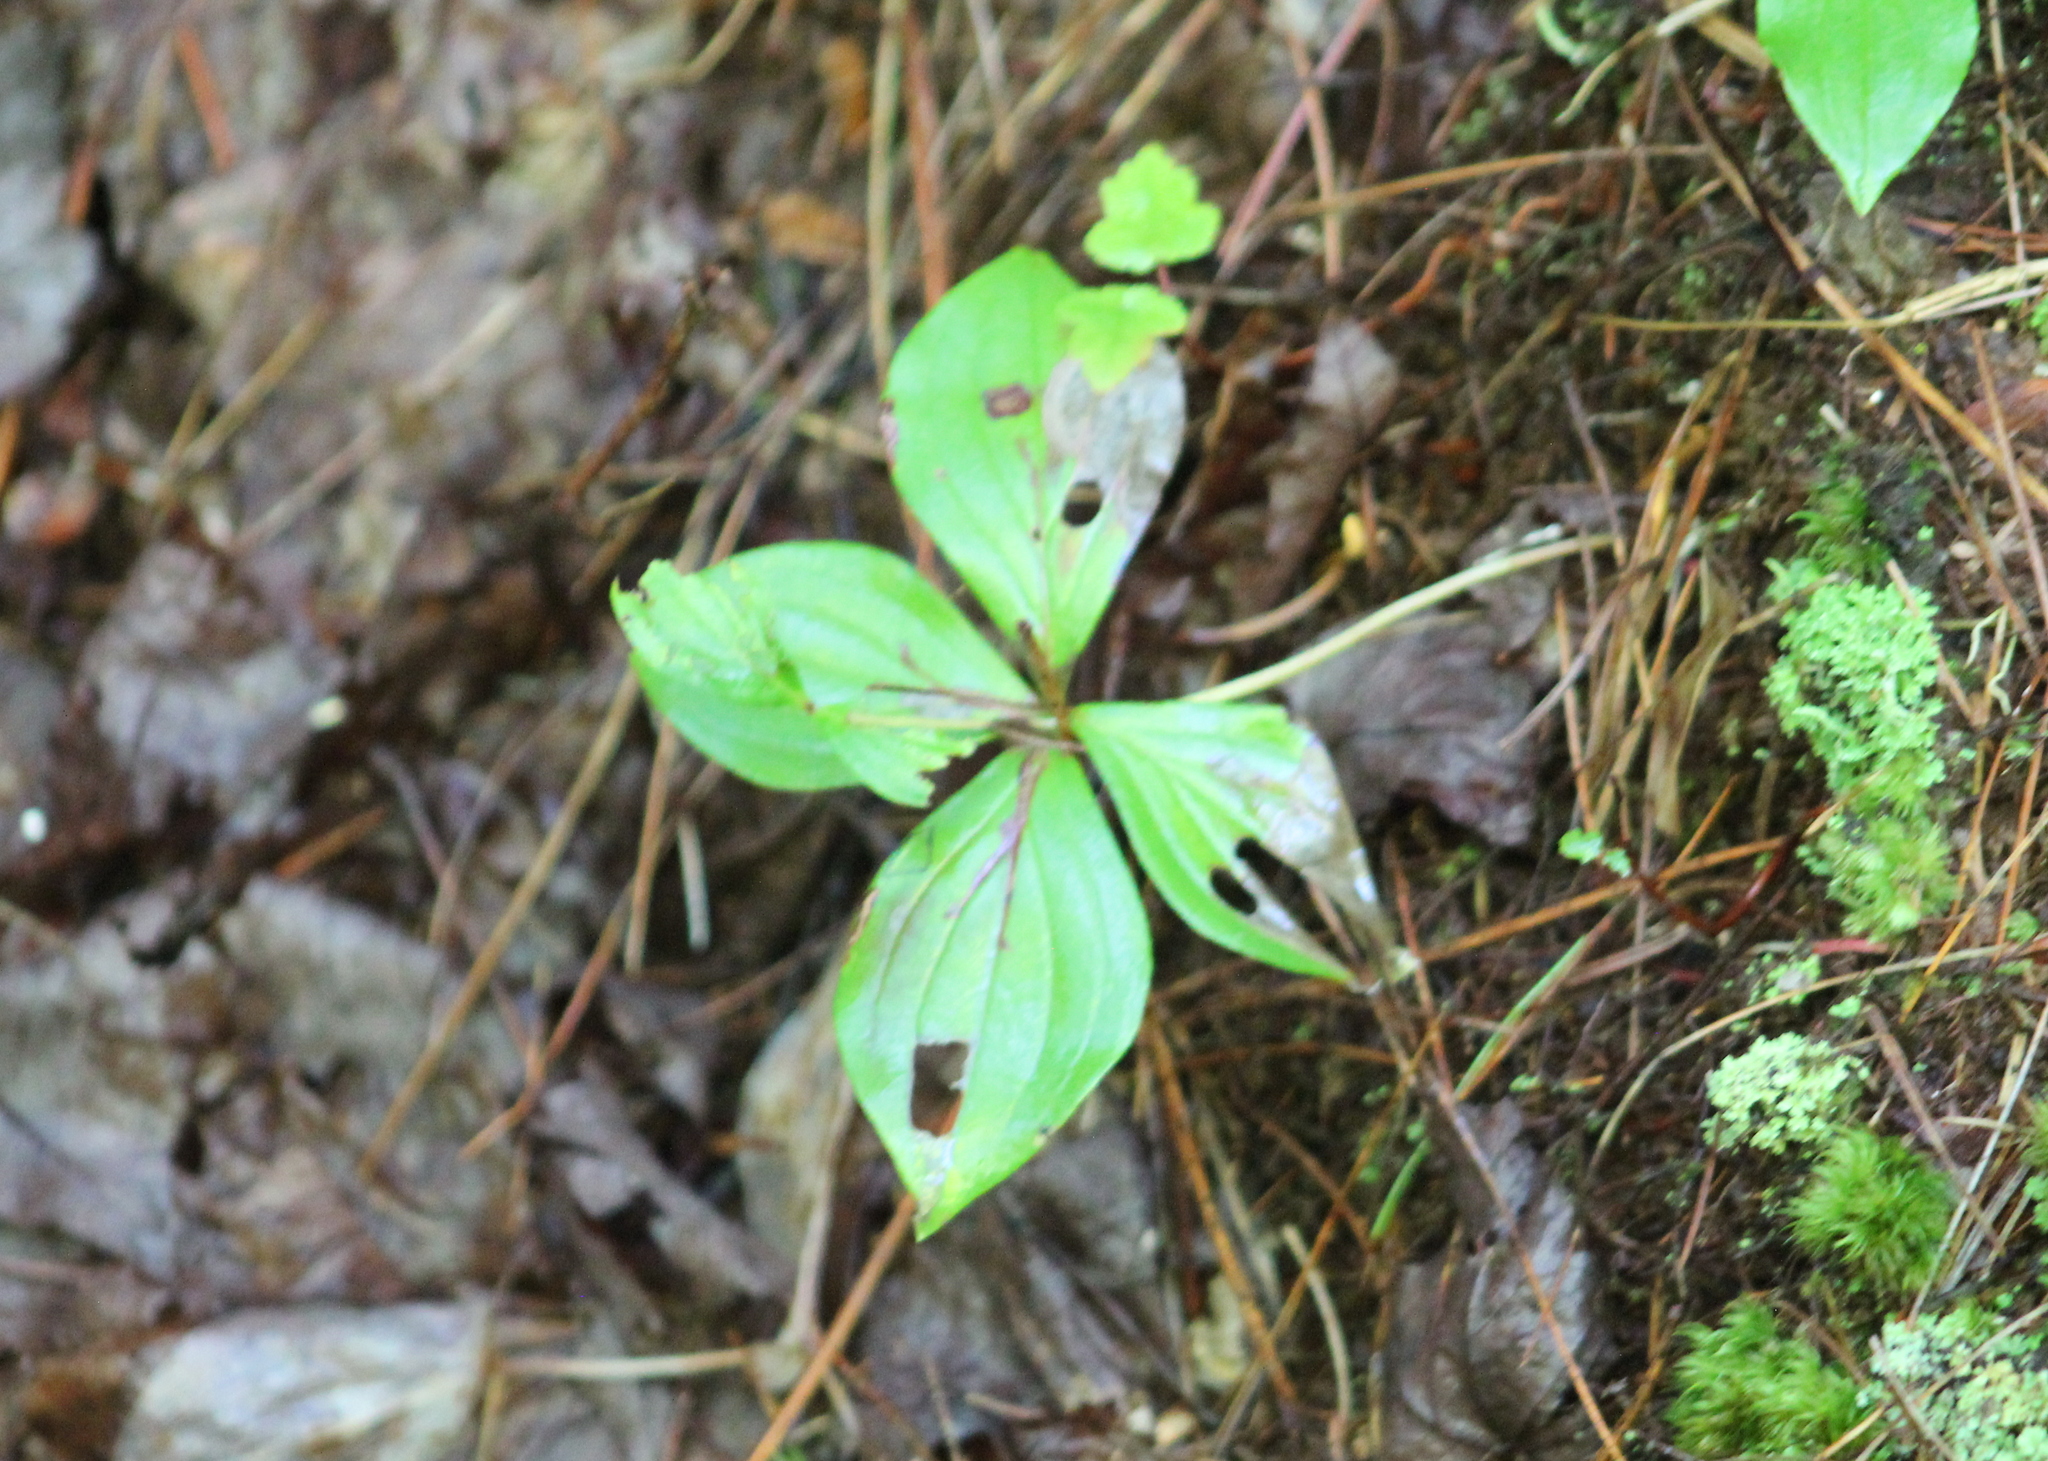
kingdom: Plantae
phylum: Tracheophyta
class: Magnoliopsida
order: Cornales
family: Cornaceae
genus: Cornus
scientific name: Cornus canadensis
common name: Creeping dogwood
